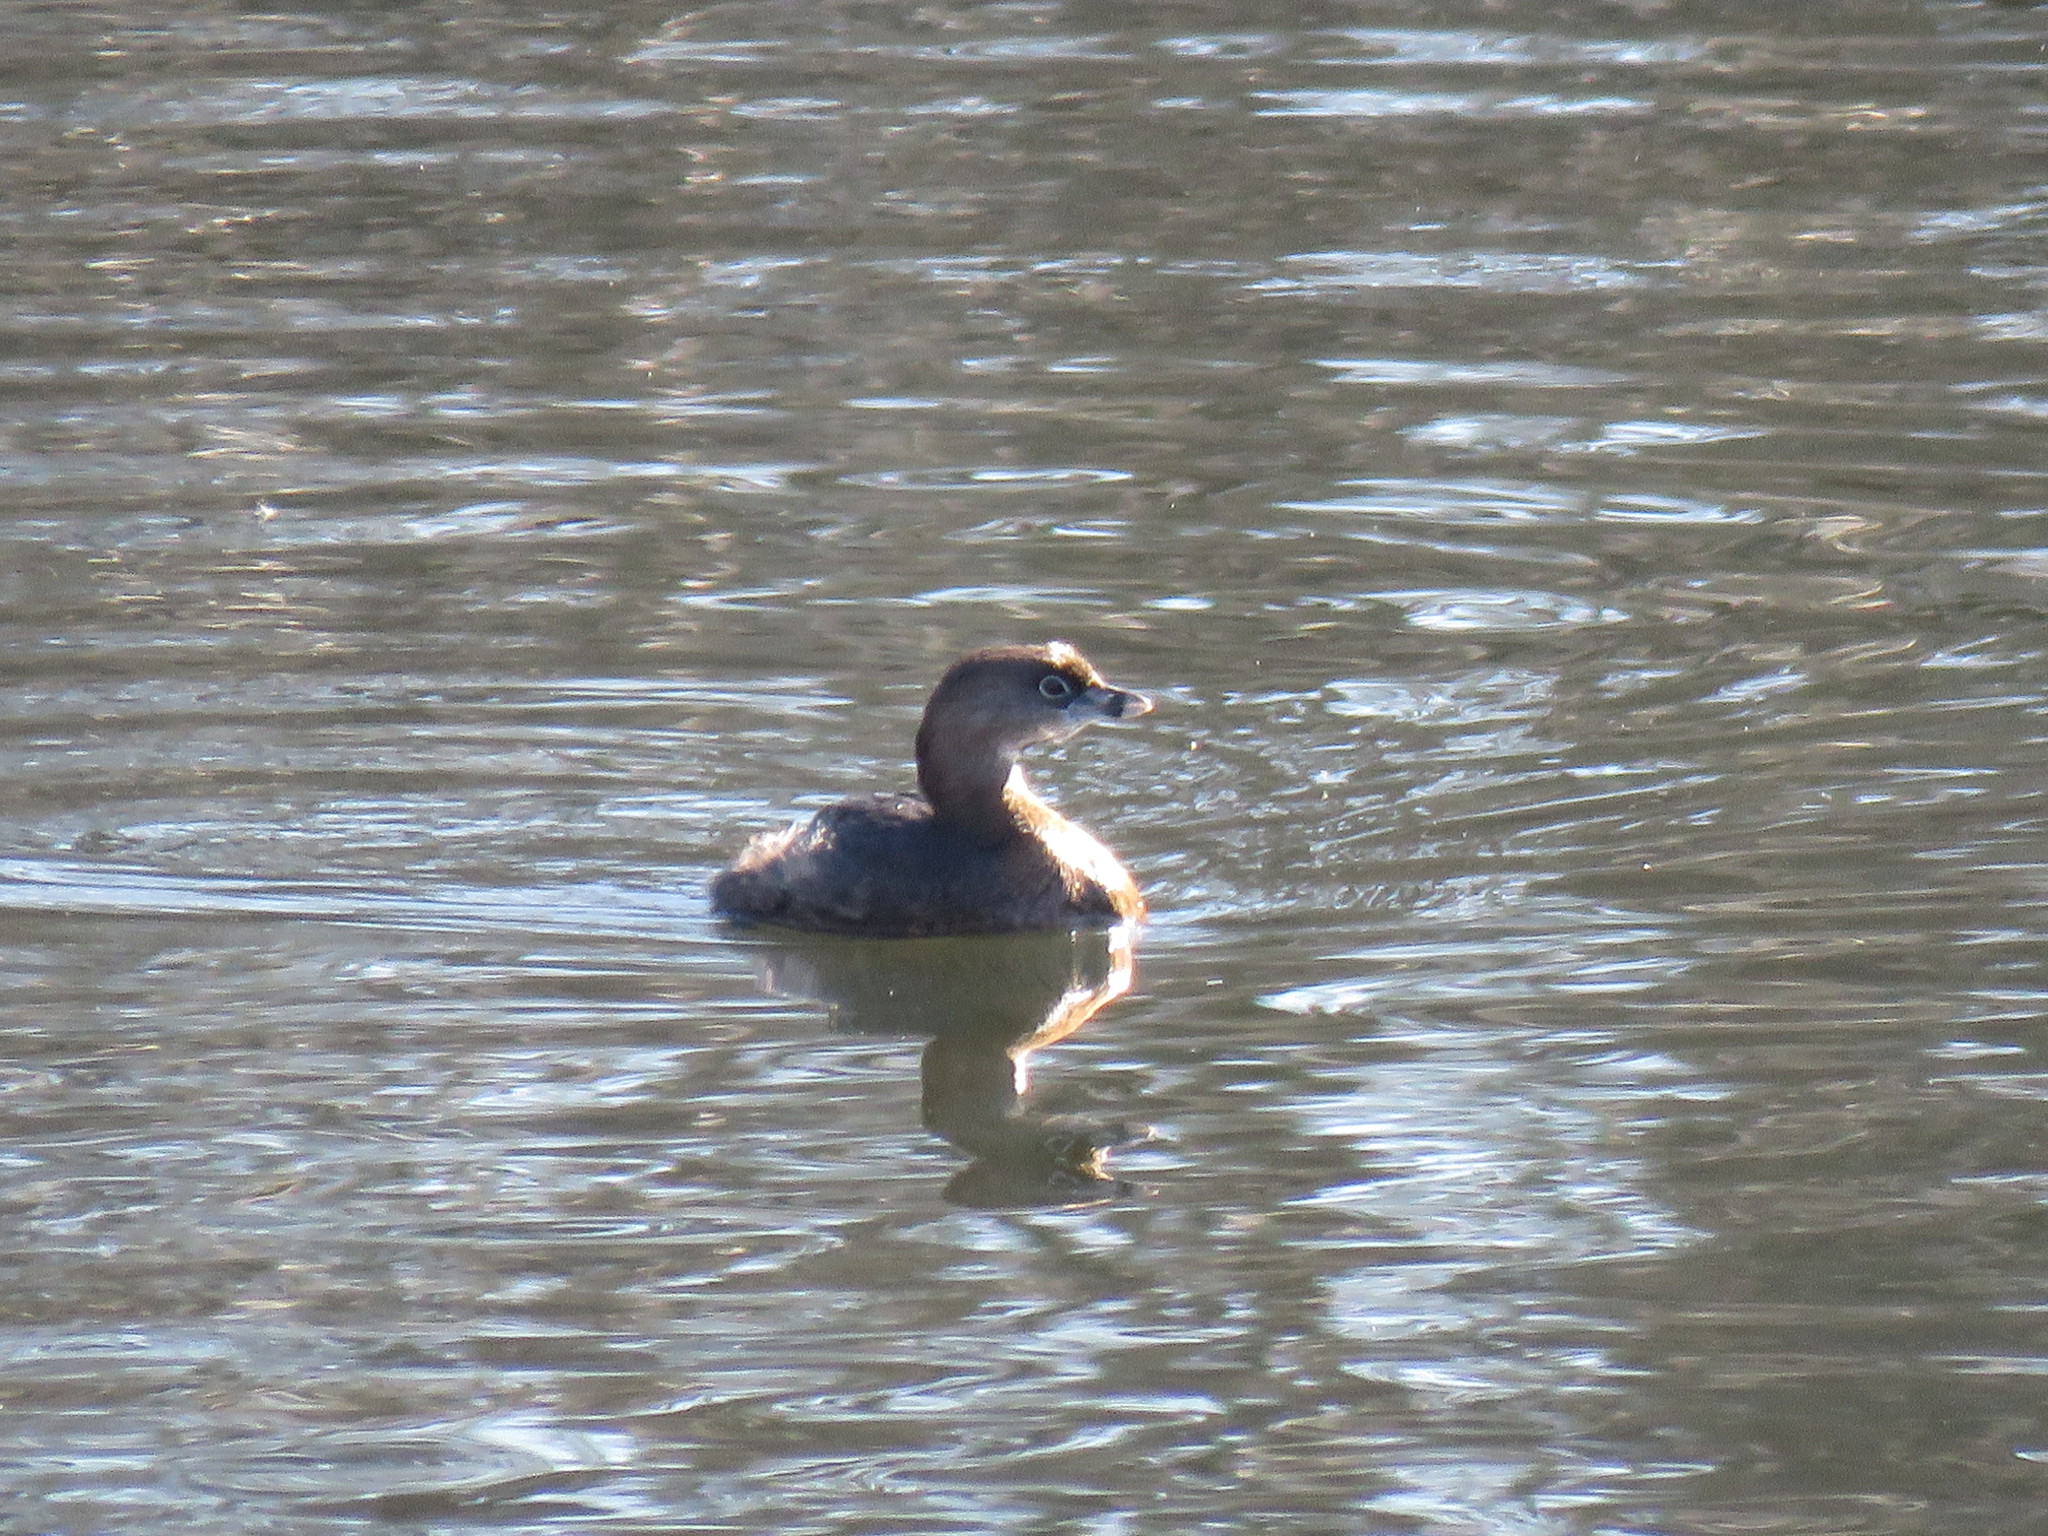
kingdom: Animalia
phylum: Chordata
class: Aves
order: Podicipediformes
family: Podicipedidae
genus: Podilymbus
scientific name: Podilymbus podiceps
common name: Pied-billed grebe
